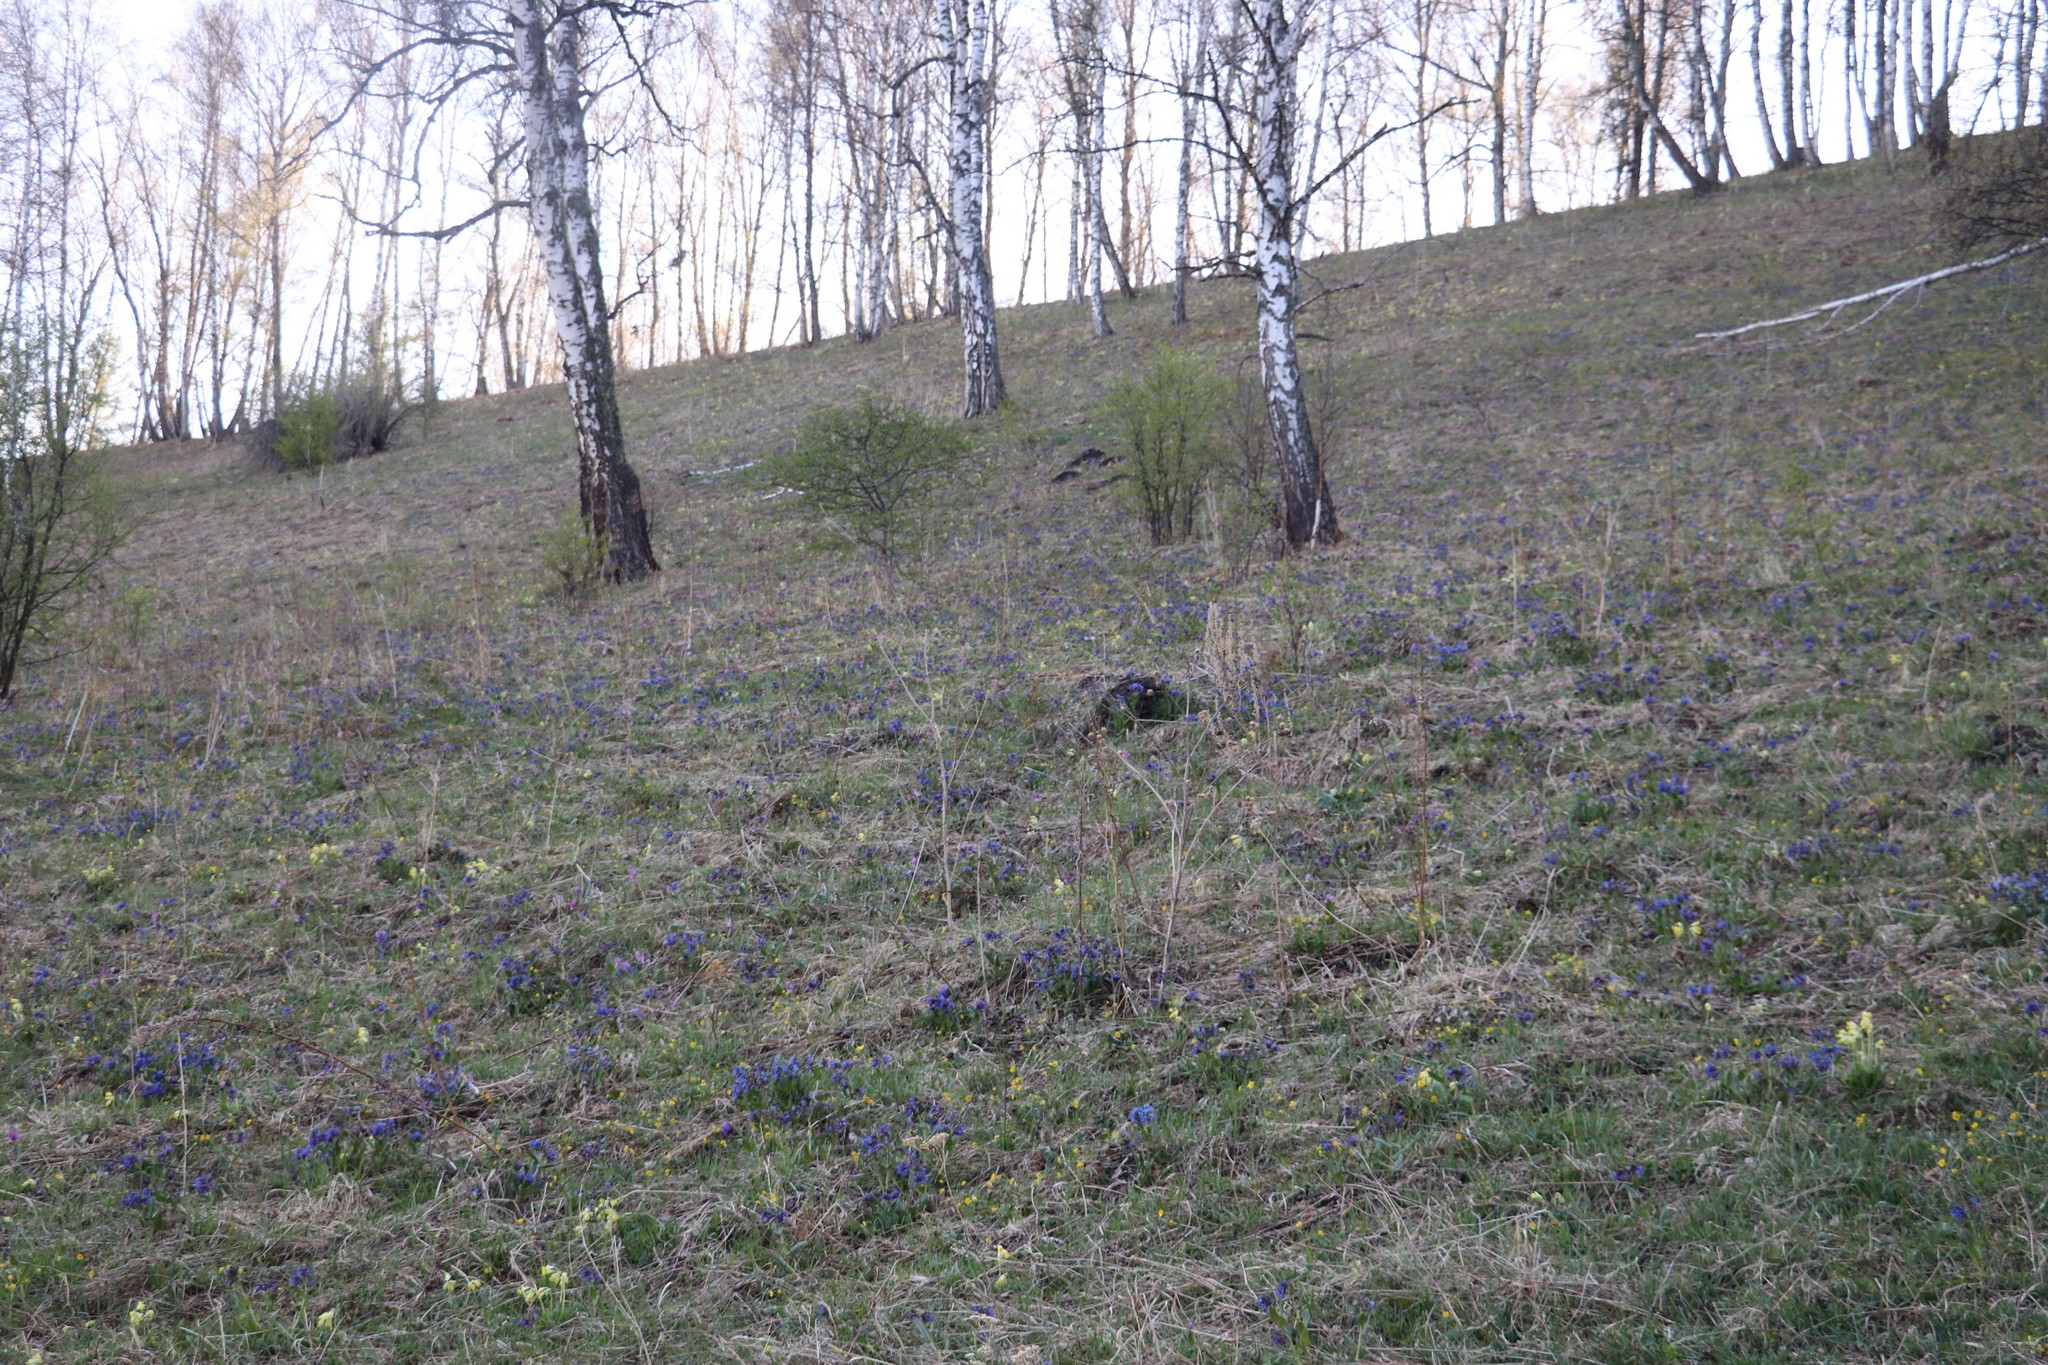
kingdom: Plantae
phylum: Tracheophyta
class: Magnoliopsida
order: Boraginales
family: Boraginaceae
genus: Pulmonaria
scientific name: Pulmonaria mollis
